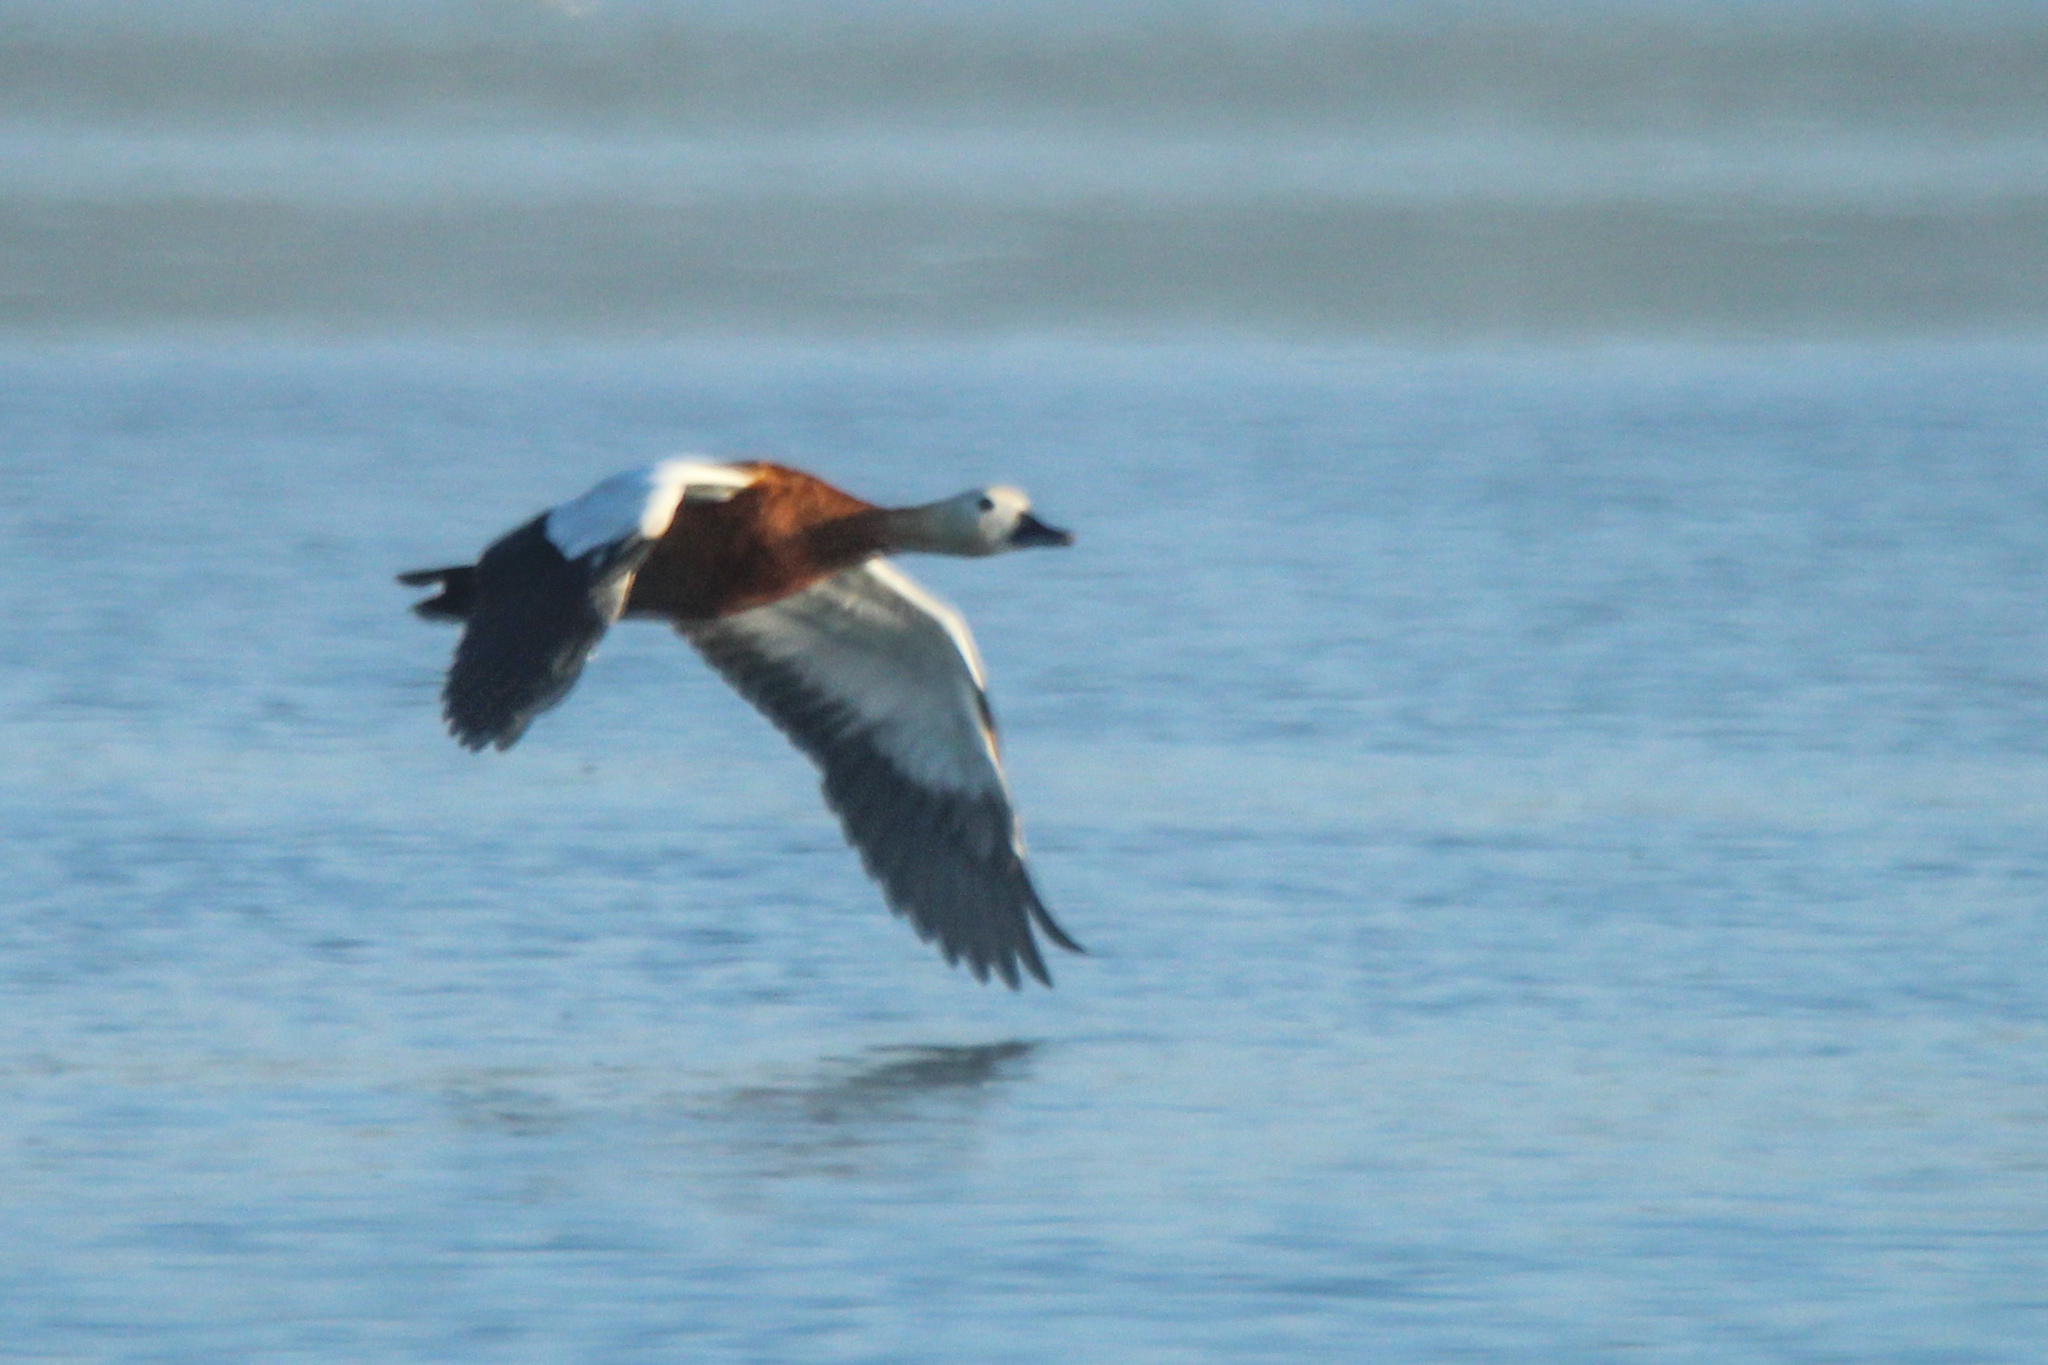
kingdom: Animalia
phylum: Chordata
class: Aves
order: Anseriformes
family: Anatidae
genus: Tadorna
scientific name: Tadorna ferruginea
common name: Ruddy shelduck
